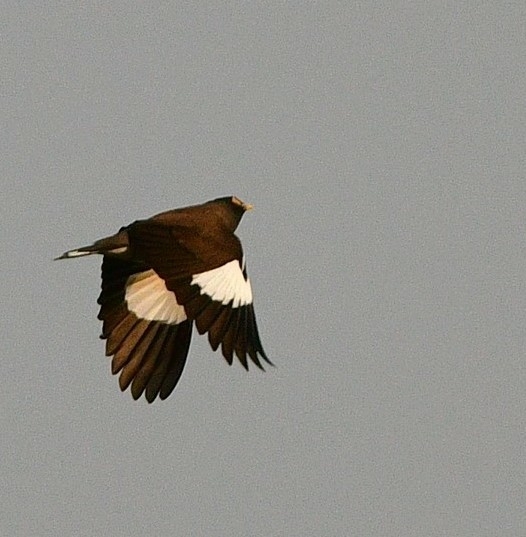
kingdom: Animalia
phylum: Chordata
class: Aves
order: Passeriformes
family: Sturnidae
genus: Acridotheres
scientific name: Acridotheres tristis
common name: Common myna
